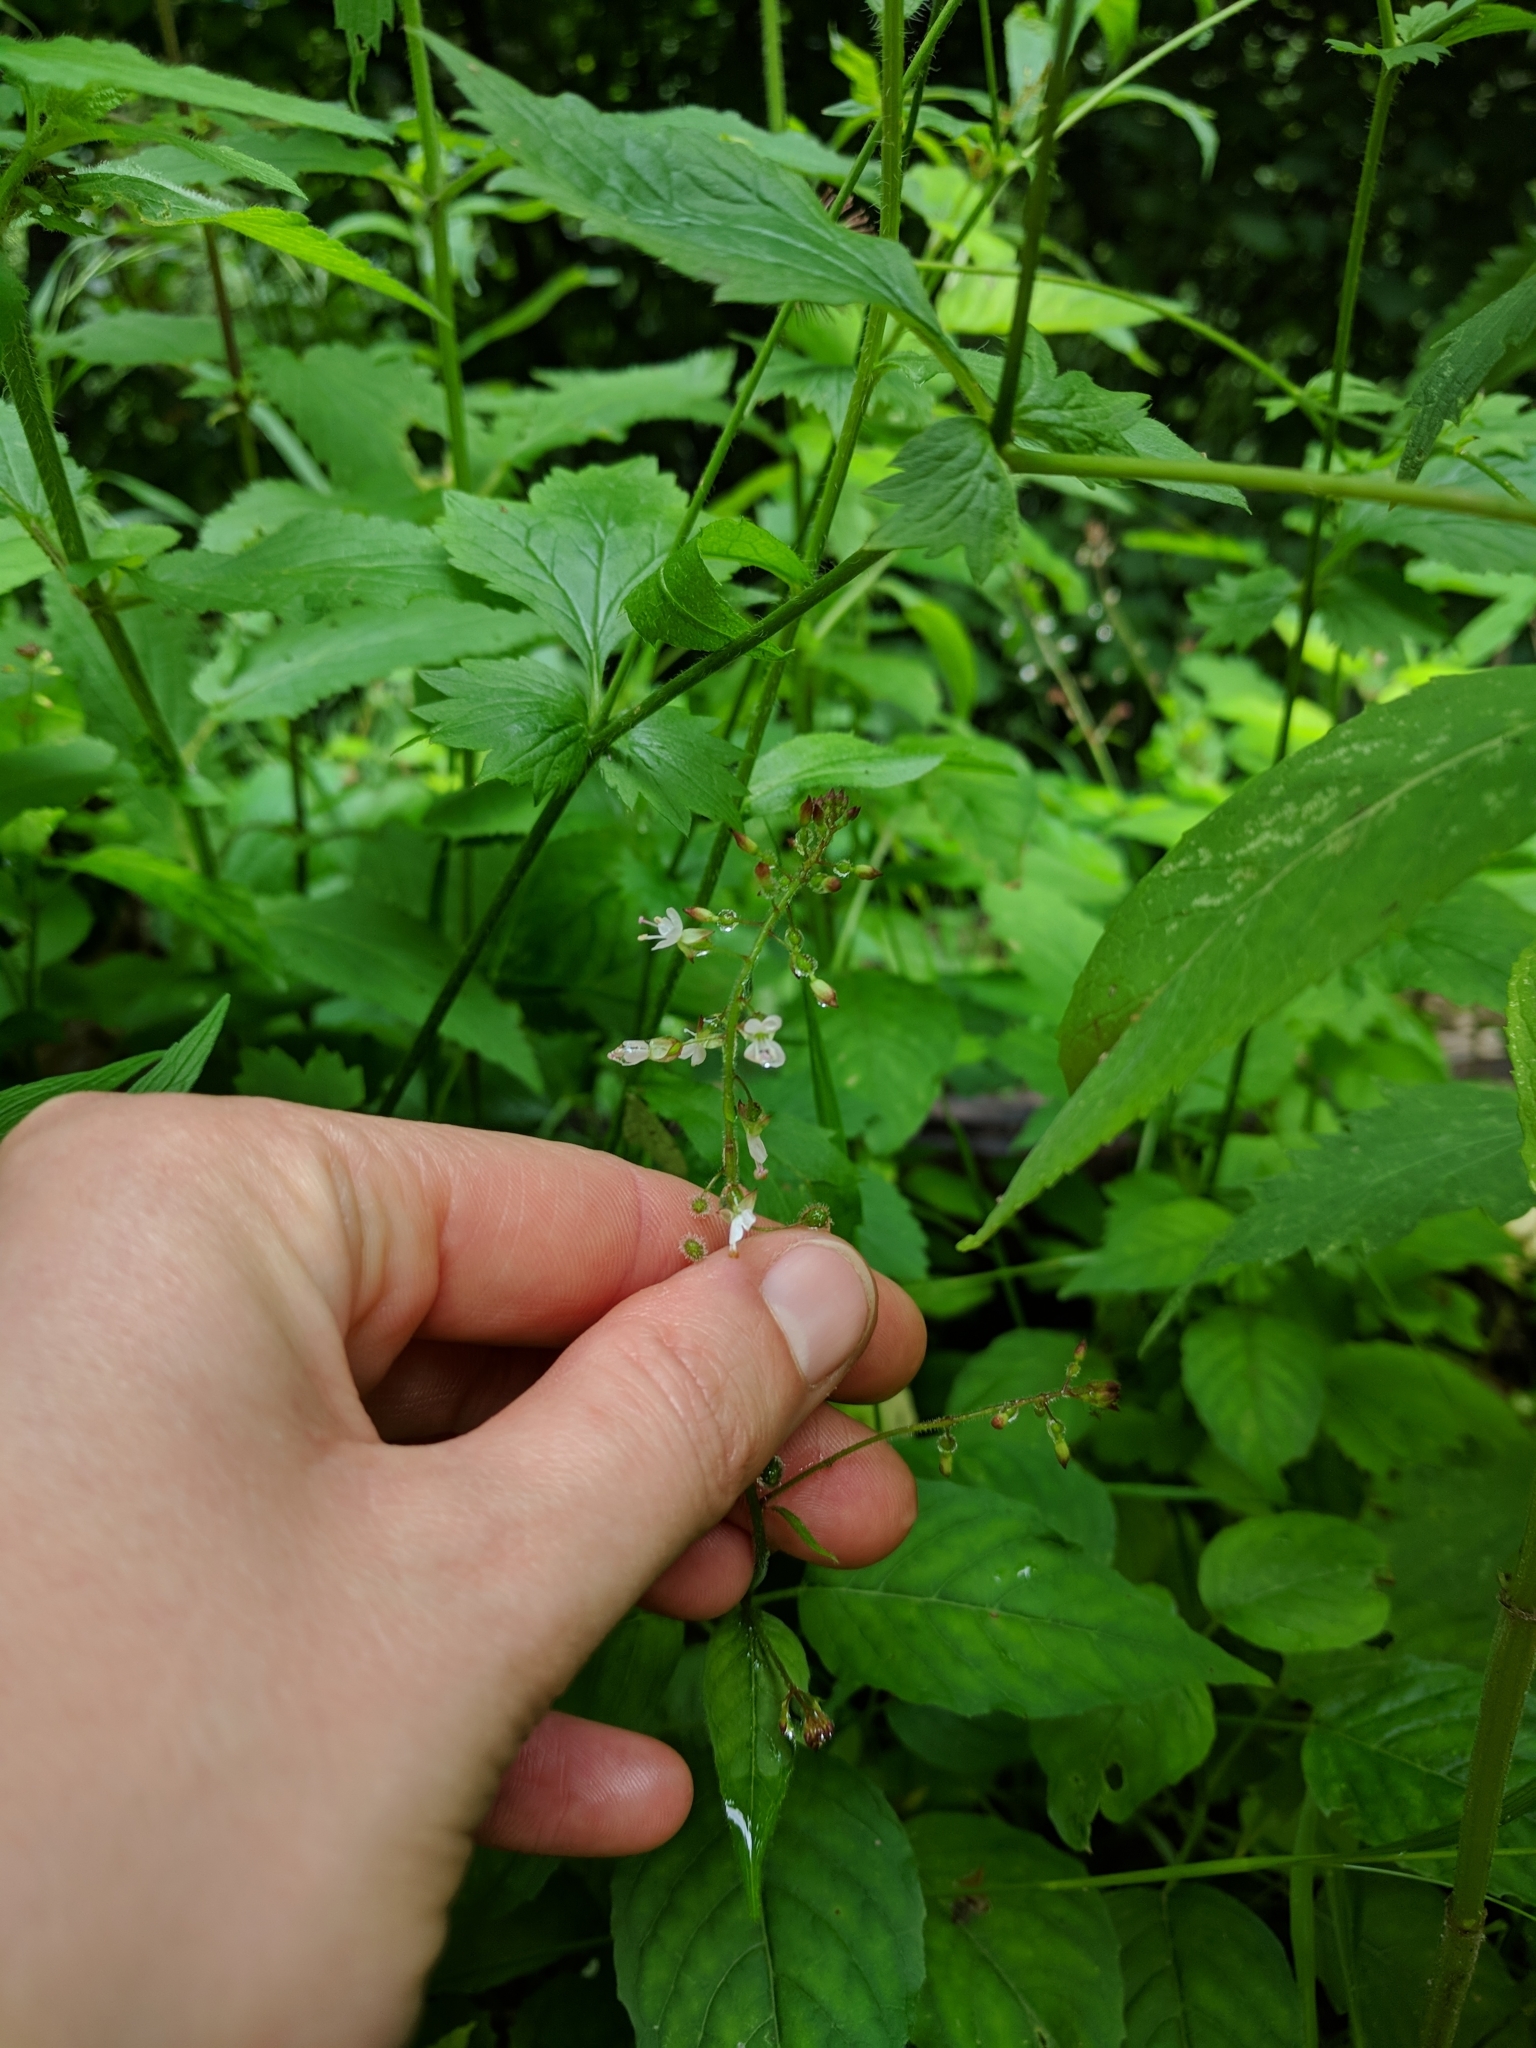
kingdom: Plantae
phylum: Tracheophyta
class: Magnoliopsida
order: Myrtales
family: Onagraceae
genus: Circaea
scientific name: Circaea lutetiana
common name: Enchanter's-nightshade
